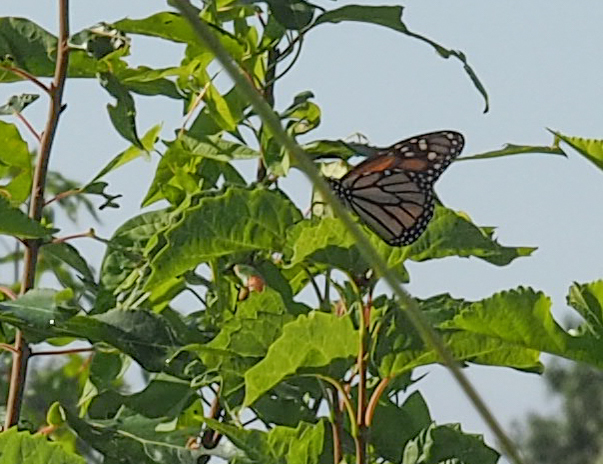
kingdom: Animalia
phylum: Arthropoda
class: Insecta
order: Lepidoptera
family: Nymphalidae
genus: Danaus
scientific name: Danaus plexippus
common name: Monarch
